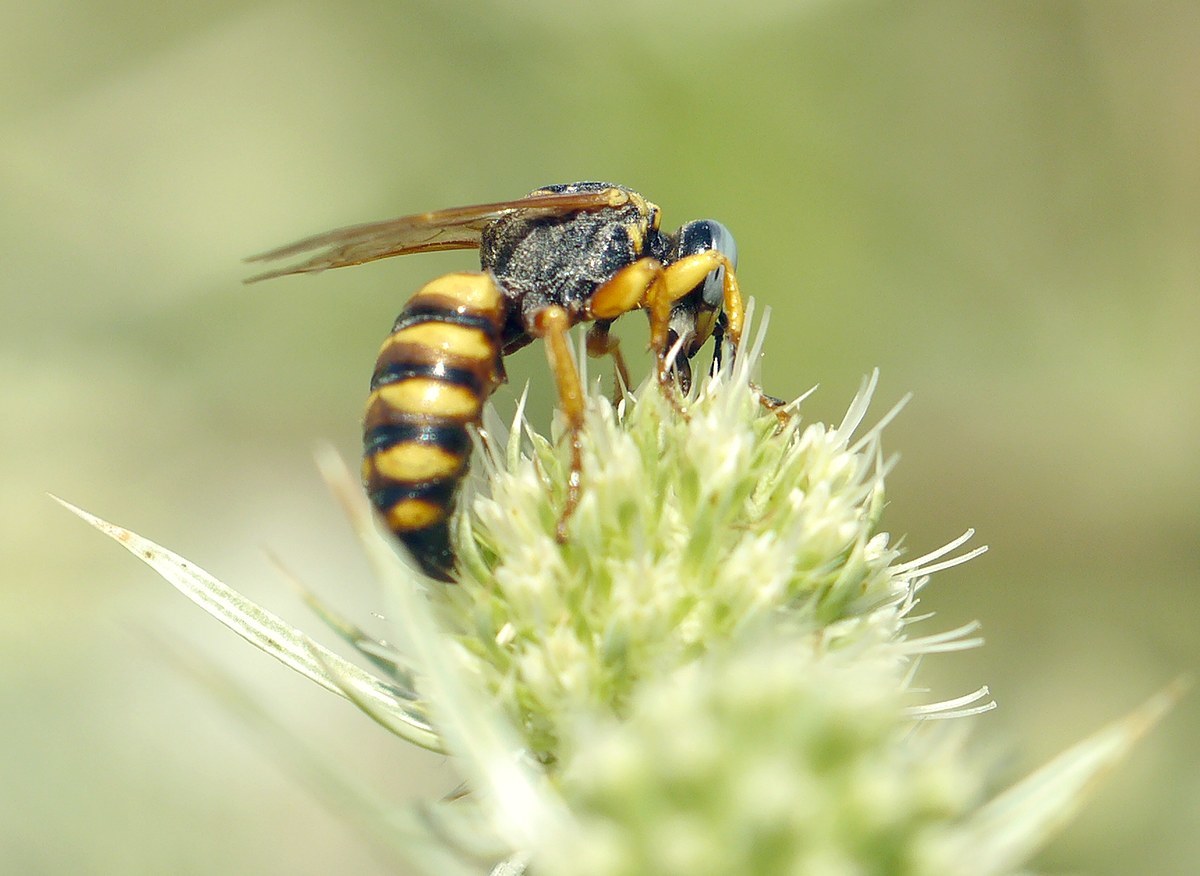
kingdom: Animalia
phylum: Arthropoda
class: Insecta
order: Hymenoptera
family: Crabronidae
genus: Palarus
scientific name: Palarus variegatus
